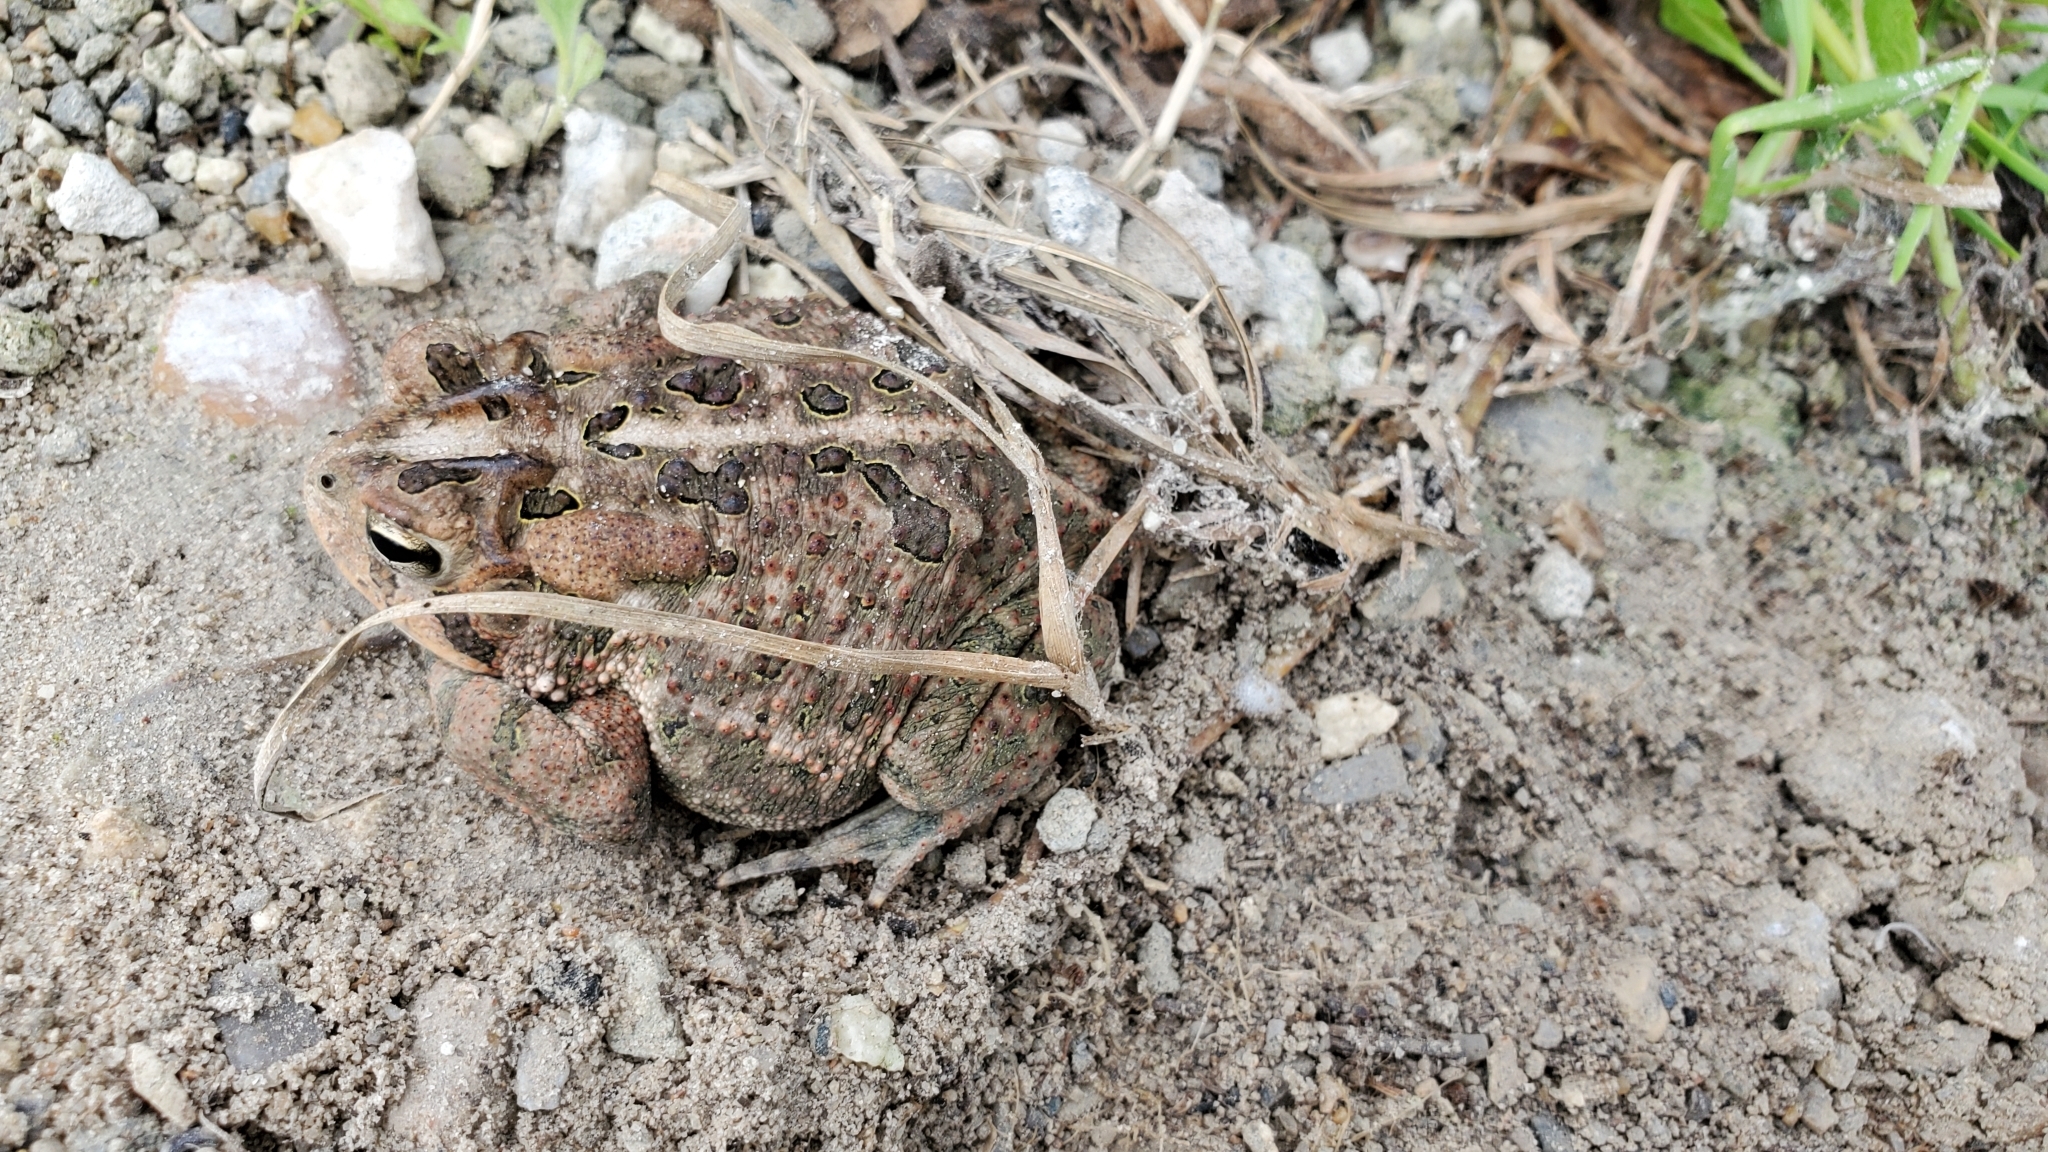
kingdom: Animalia
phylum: Chordata
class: Amphibia
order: Anura
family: Bufonidae
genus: Anaxyrus
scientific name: Anaxyrus terrestris
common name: Southern toad
